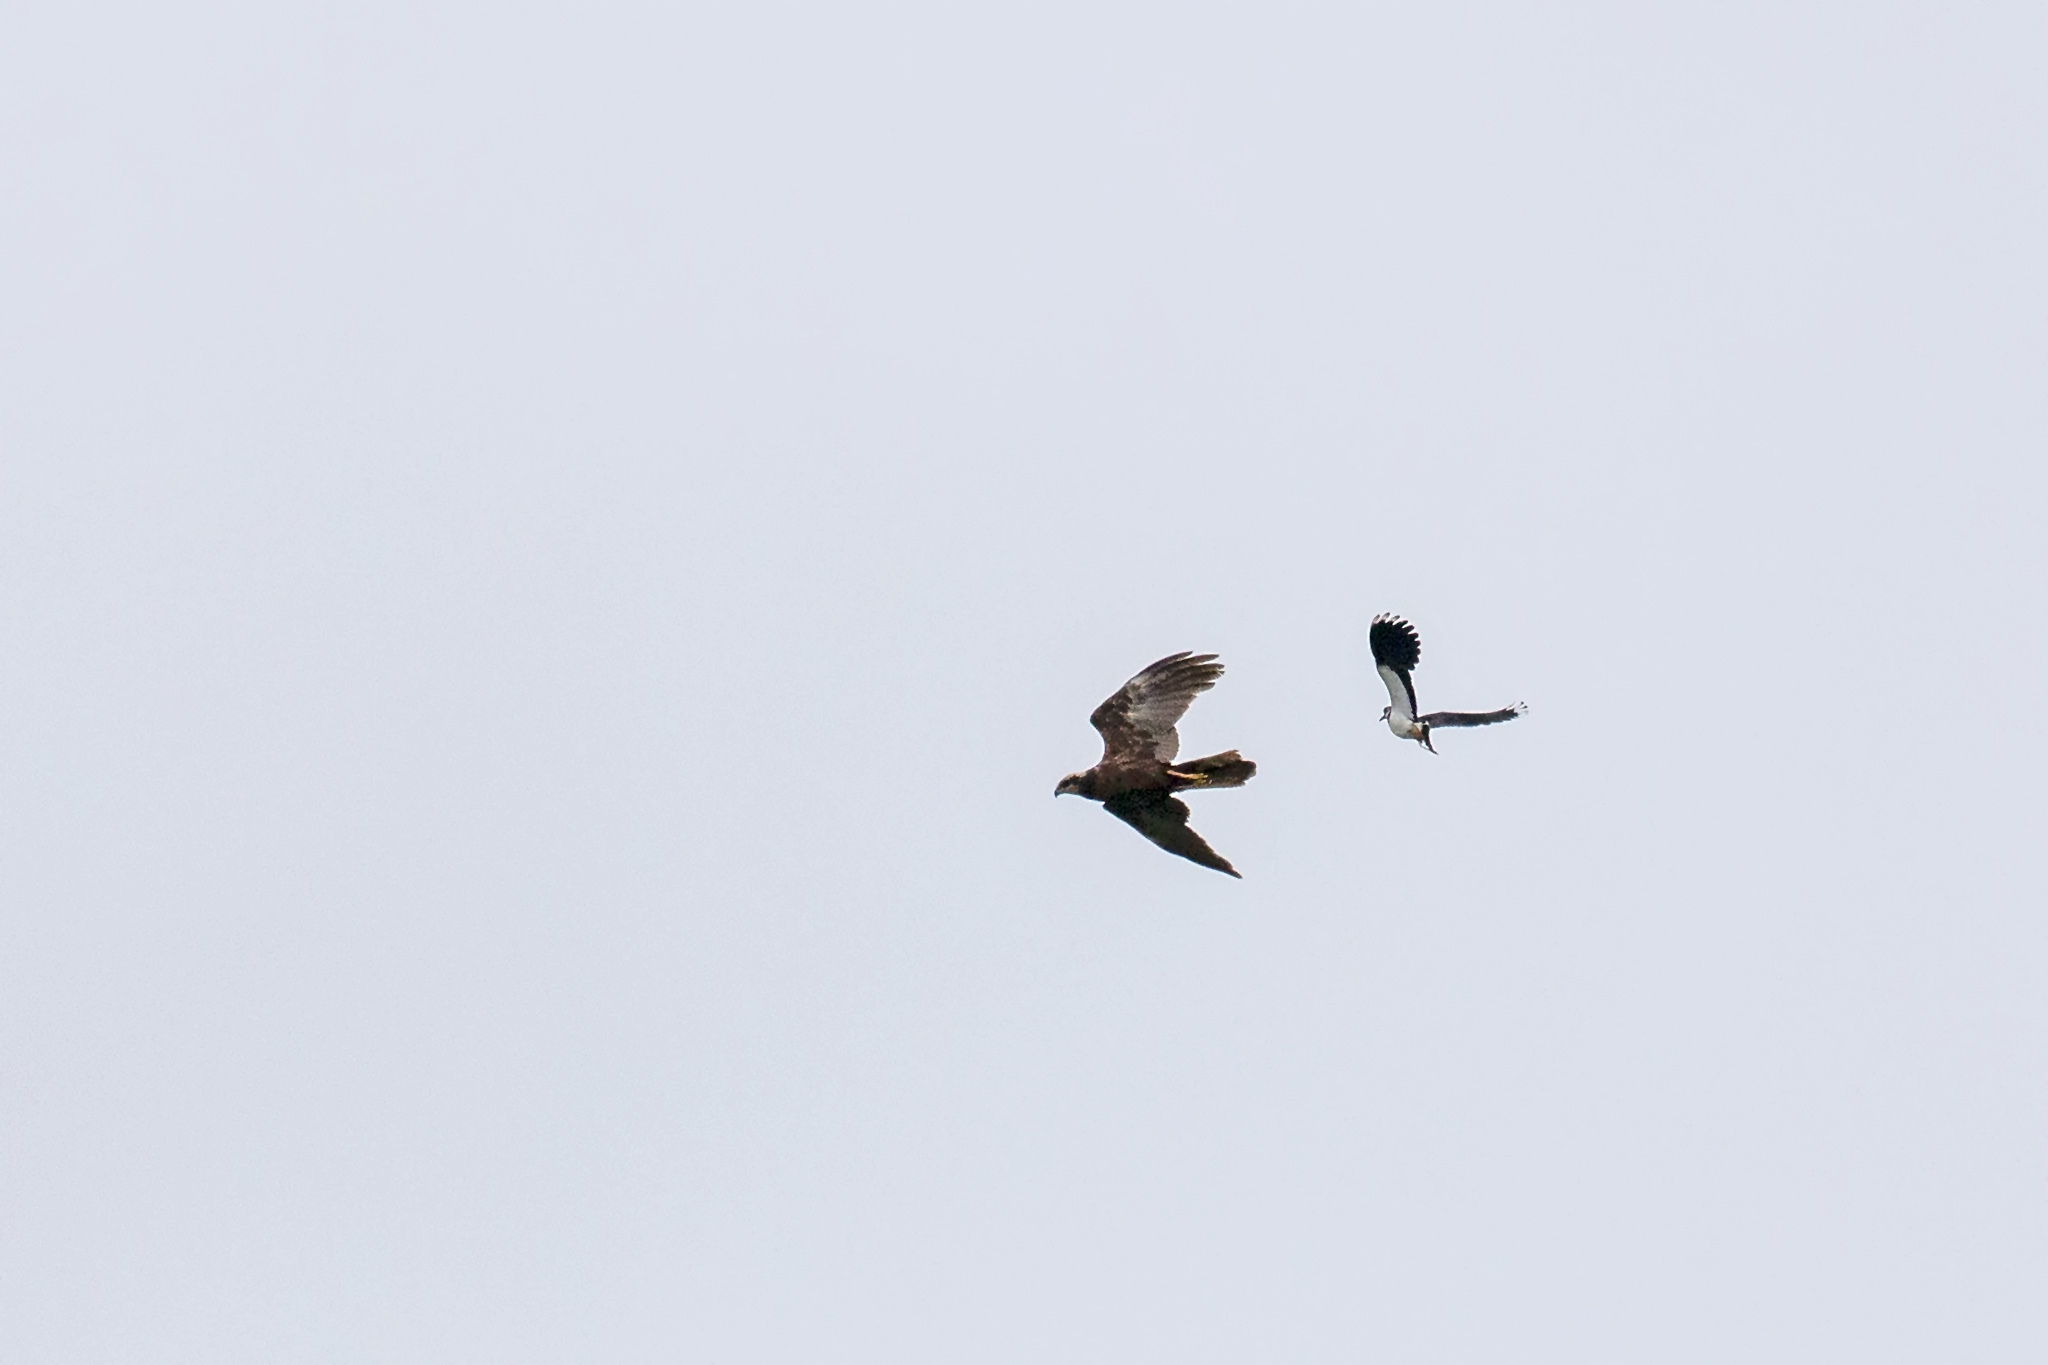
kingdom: Animalia
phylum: Chordata
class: Aves
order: Accipitriformes
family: Accipitridae
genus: Circus
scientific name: Circus aeruginosus
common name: Western marsh harrier
